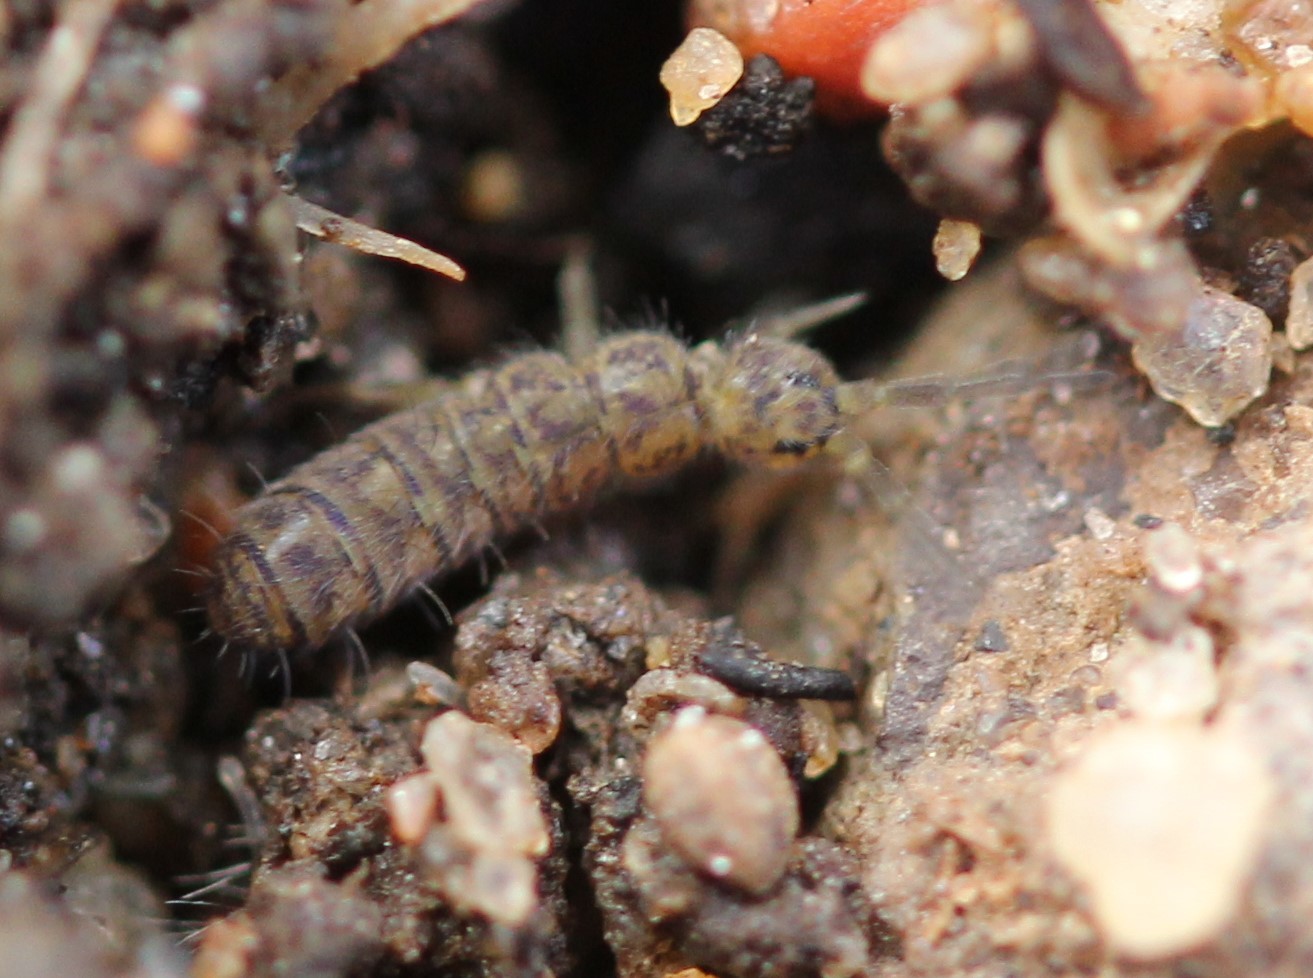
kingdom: Animalia
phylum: Arthropoda
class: Collembola
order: Entomobryomorpha
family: Isotomidae
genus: Isotoma
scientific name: Isotoma delta
